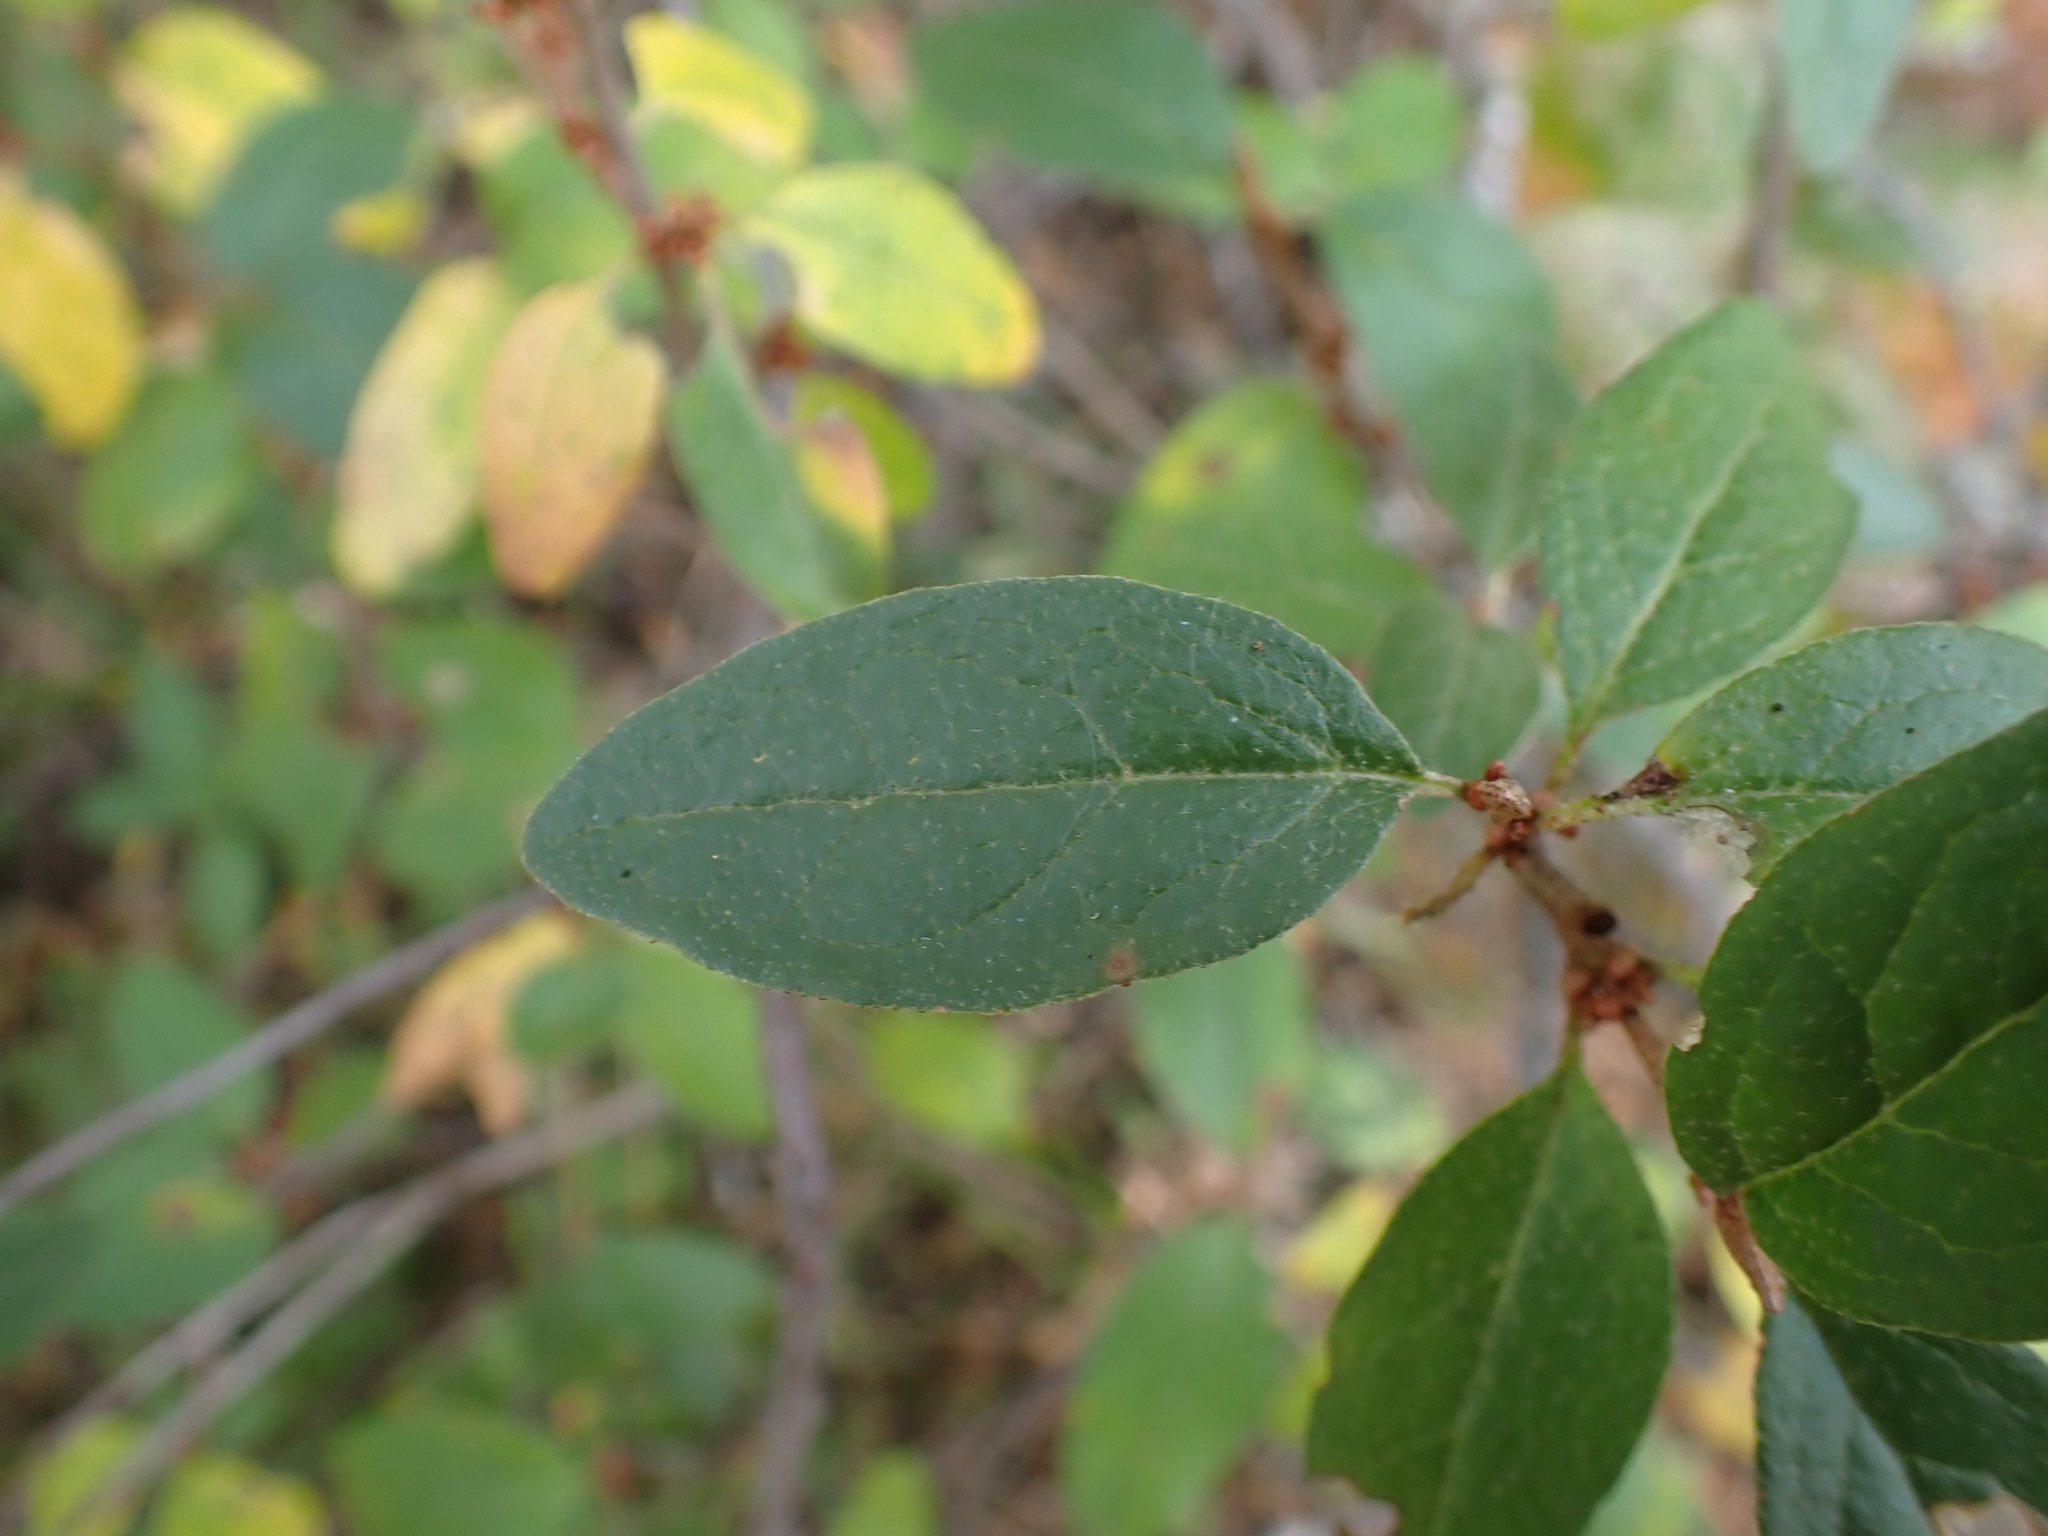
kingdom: Plantae
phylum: Tracheophyta
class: Magnoliopsida
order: Rosales
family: Elaeagnaceae
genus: Shepherdia
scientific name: Shepherdia canadensis
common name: Soapberry
